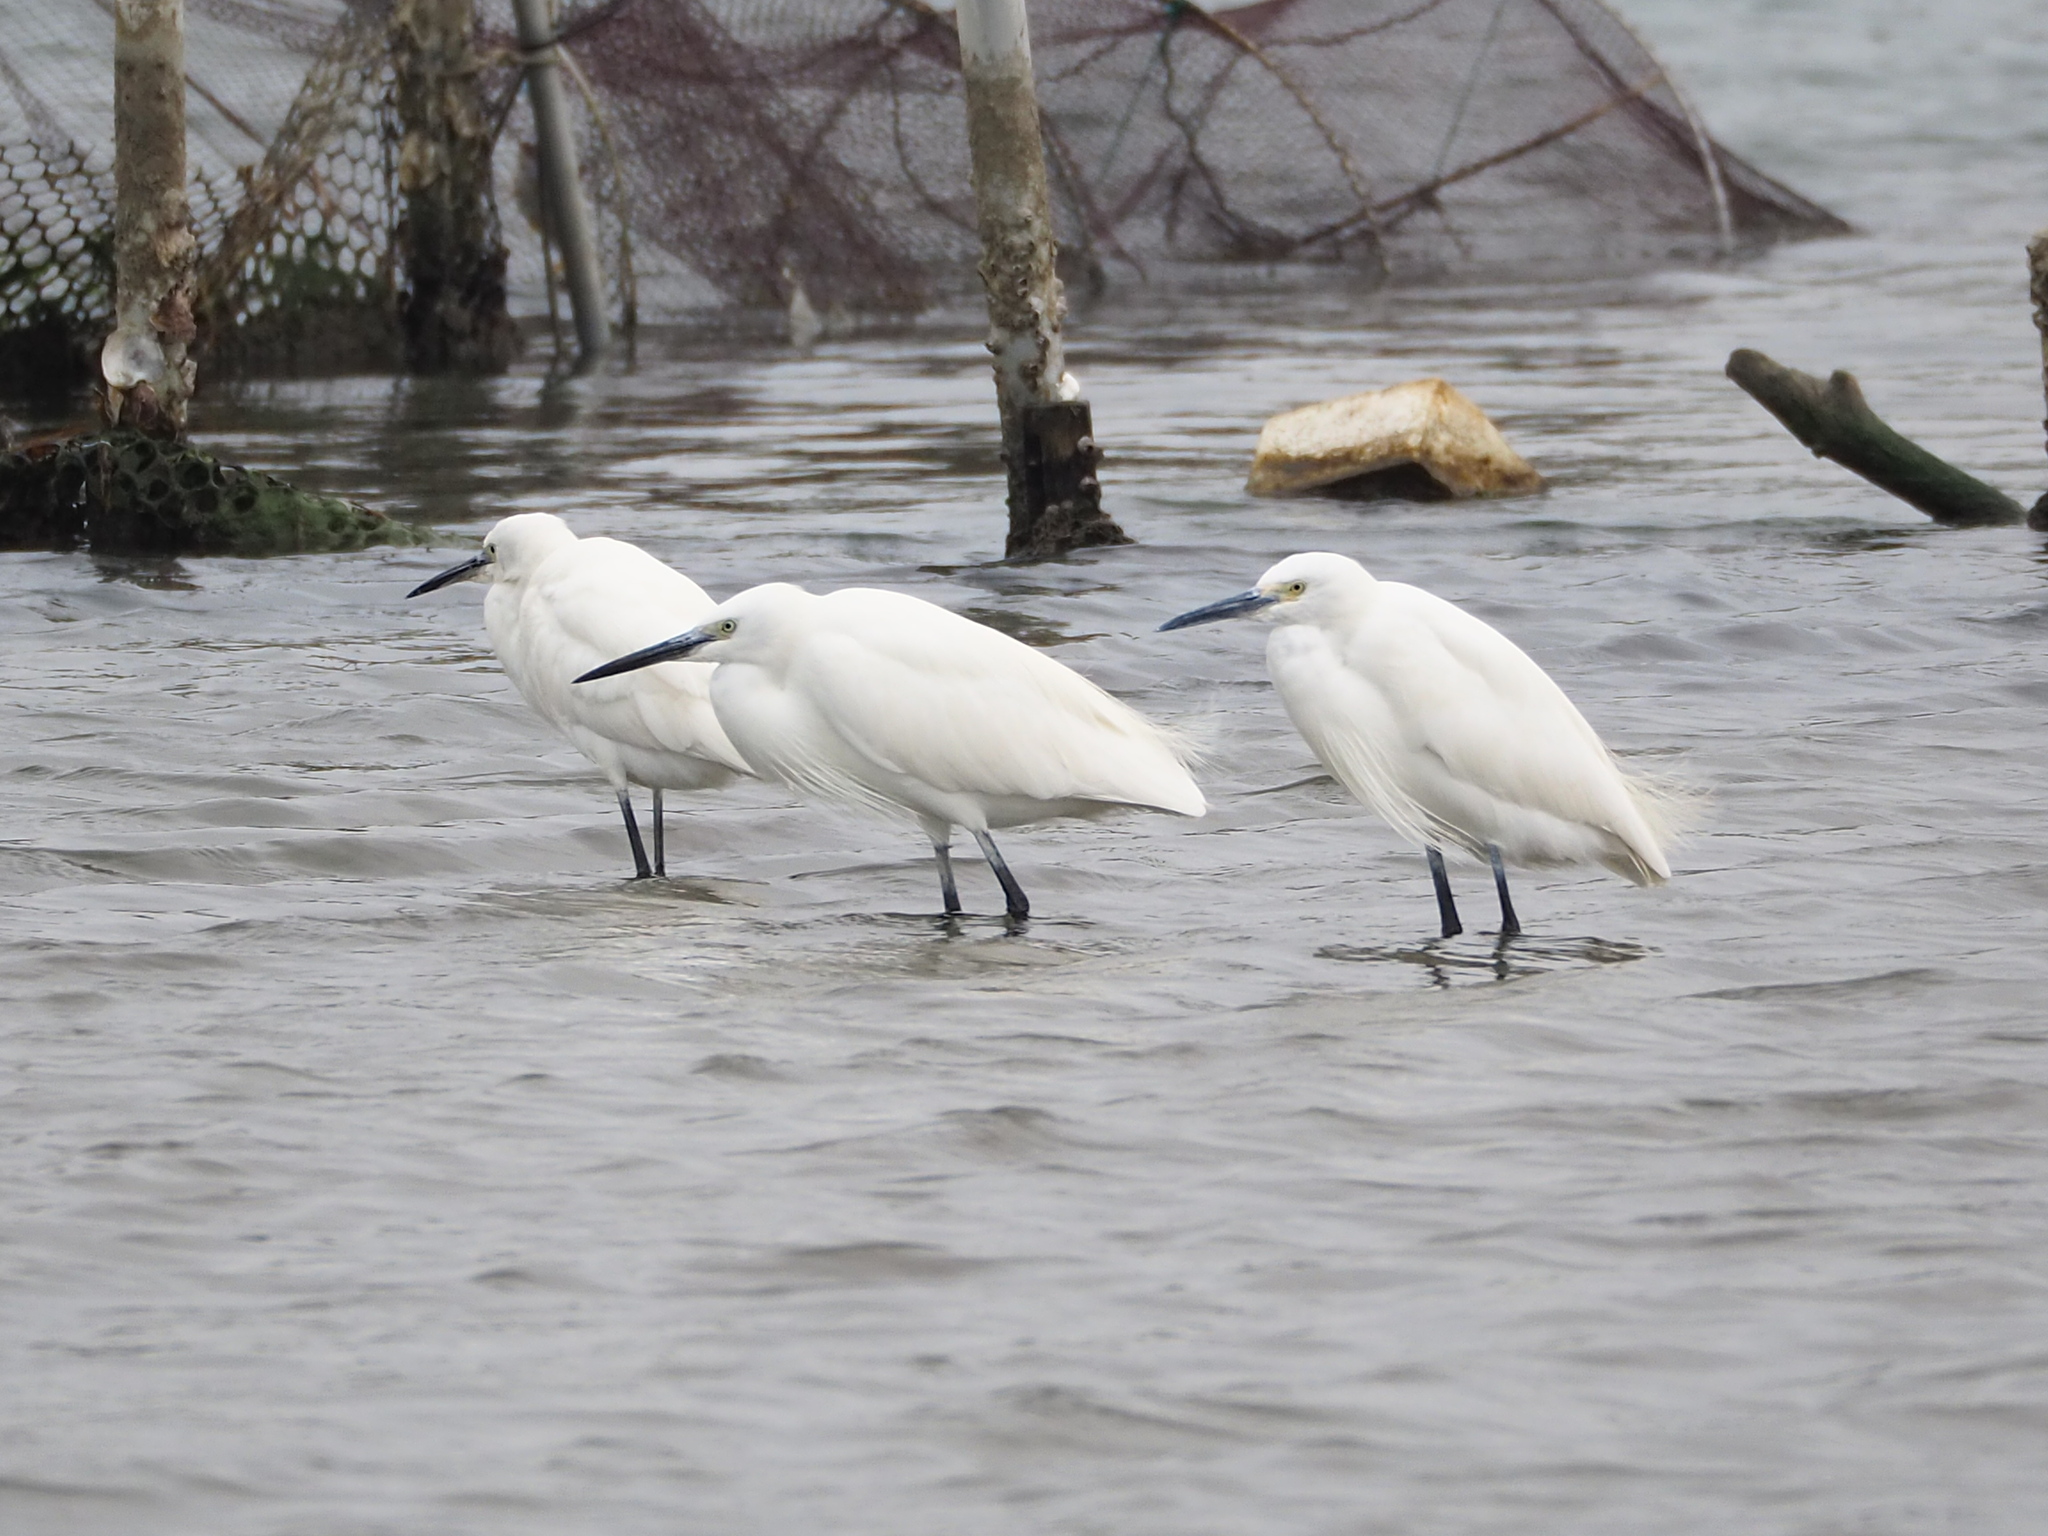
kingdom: Animalia
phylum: Chordata
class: Aves
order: Pelecaniformes
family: Ardeidae
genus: Egretta
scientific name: Egretta garzetta
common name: Little egret
